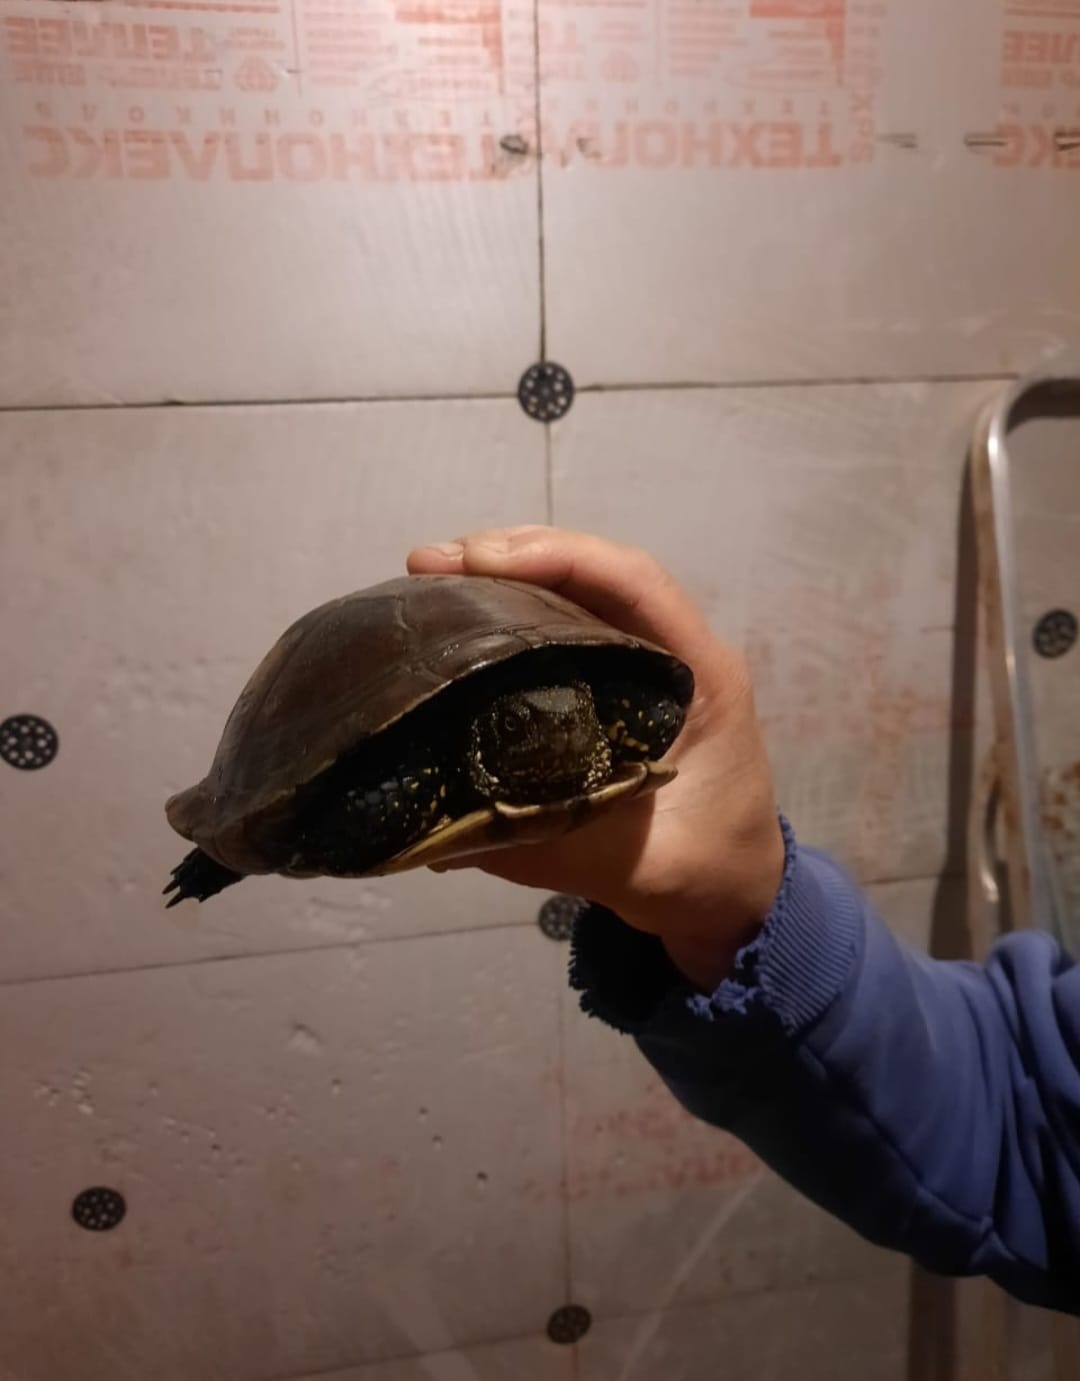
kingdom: Animalia
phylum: Chordata
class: Testudines
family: Emydidae
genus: Emys
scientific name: Emys orbicularis
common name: European pond turtle
